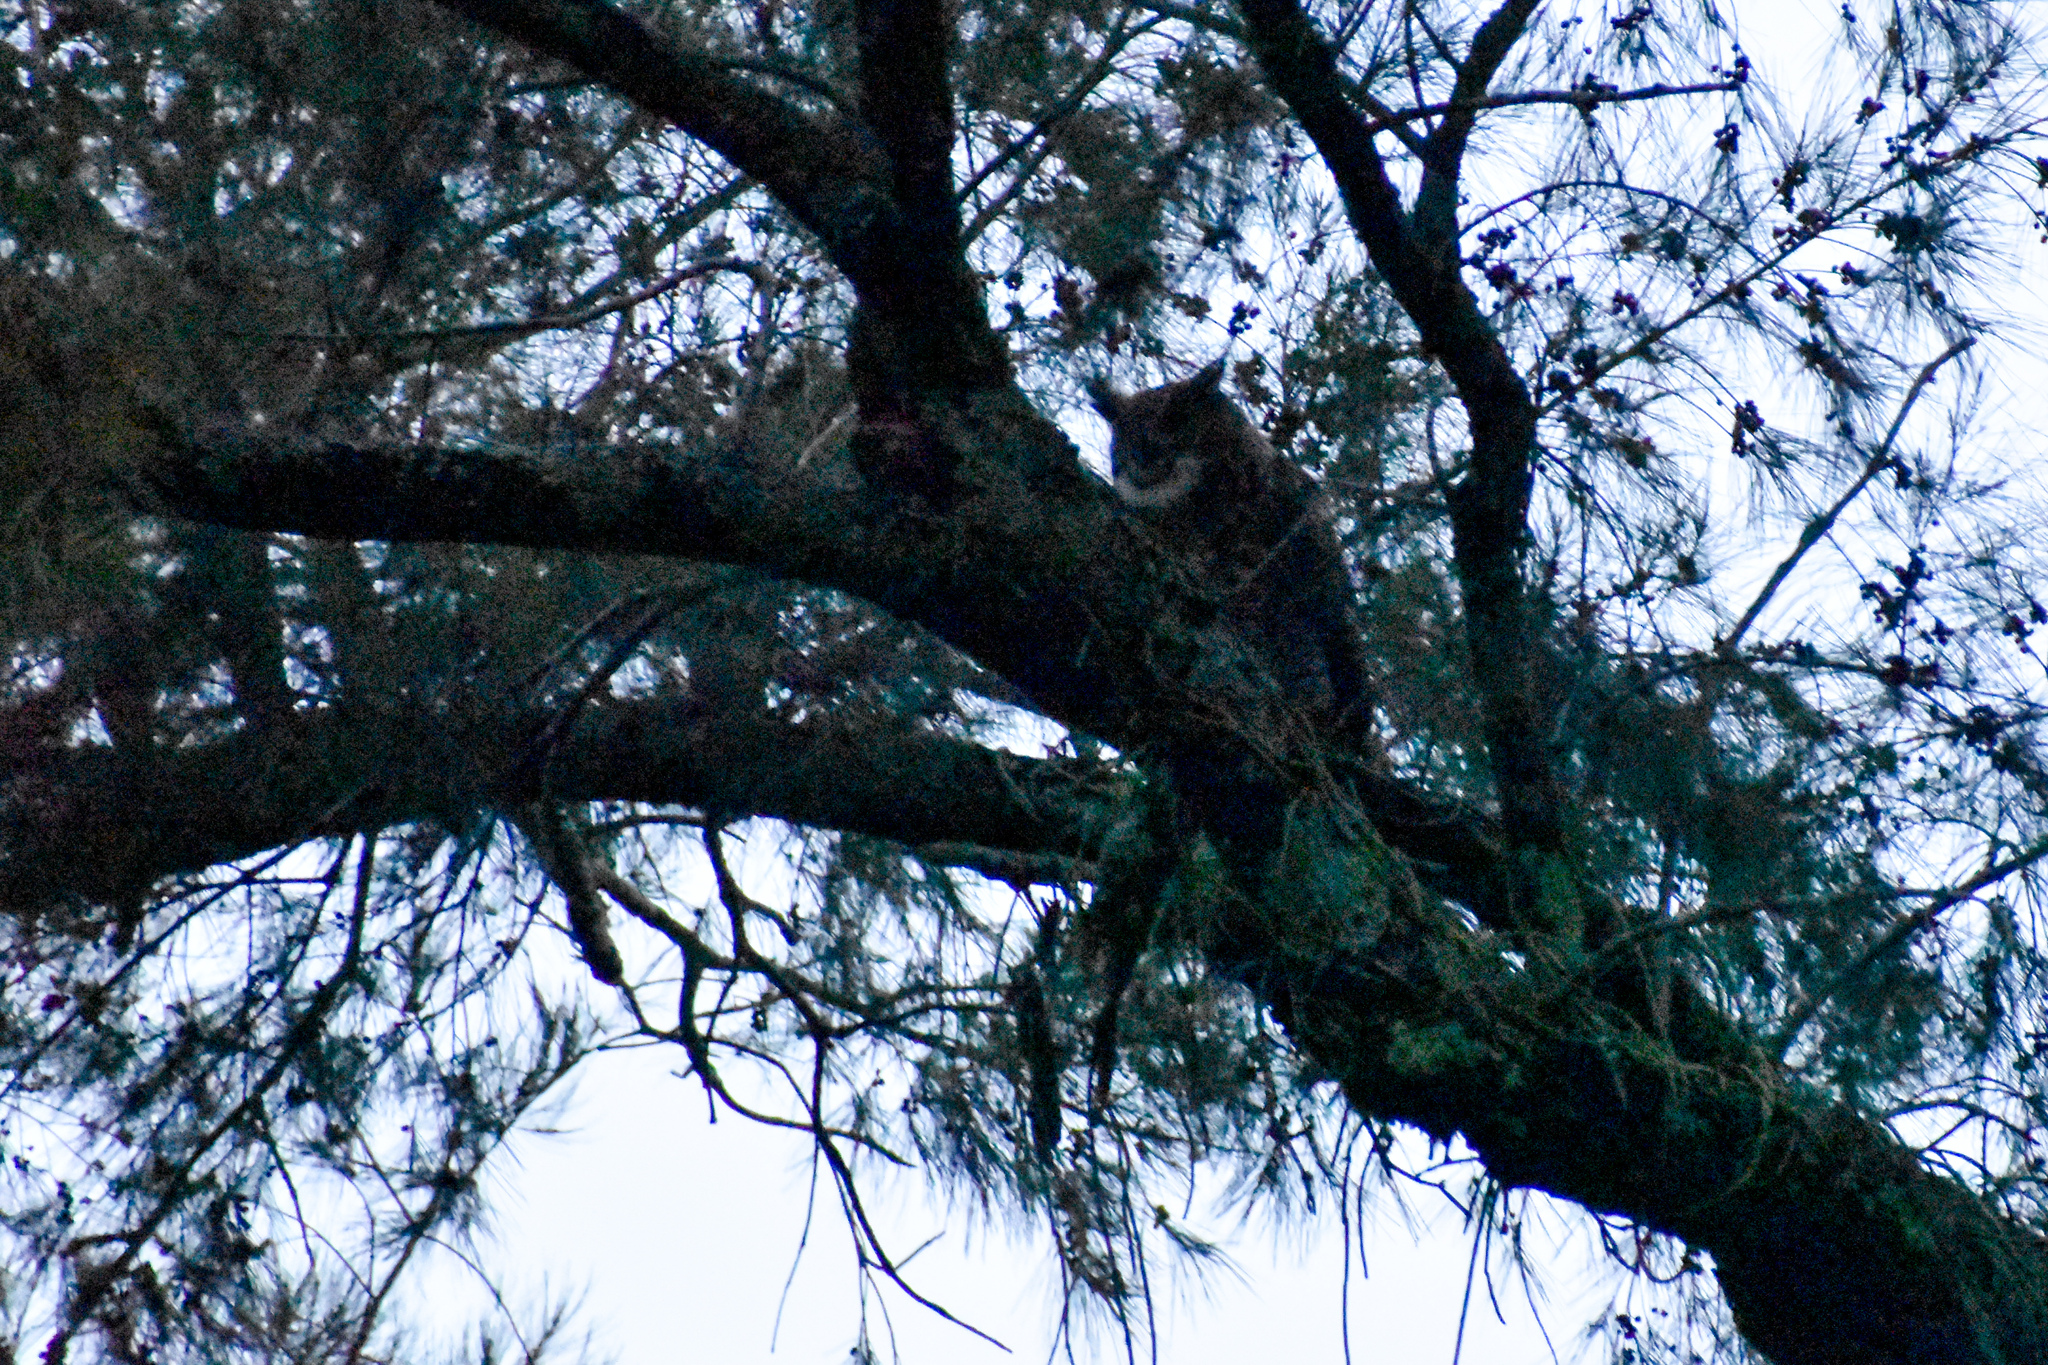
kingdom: Animalia
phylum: Chordata
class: Aves
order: Strigiformes
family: Strigidae
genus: Bubo
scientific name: Bubo virginianus
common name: Great horned owl
